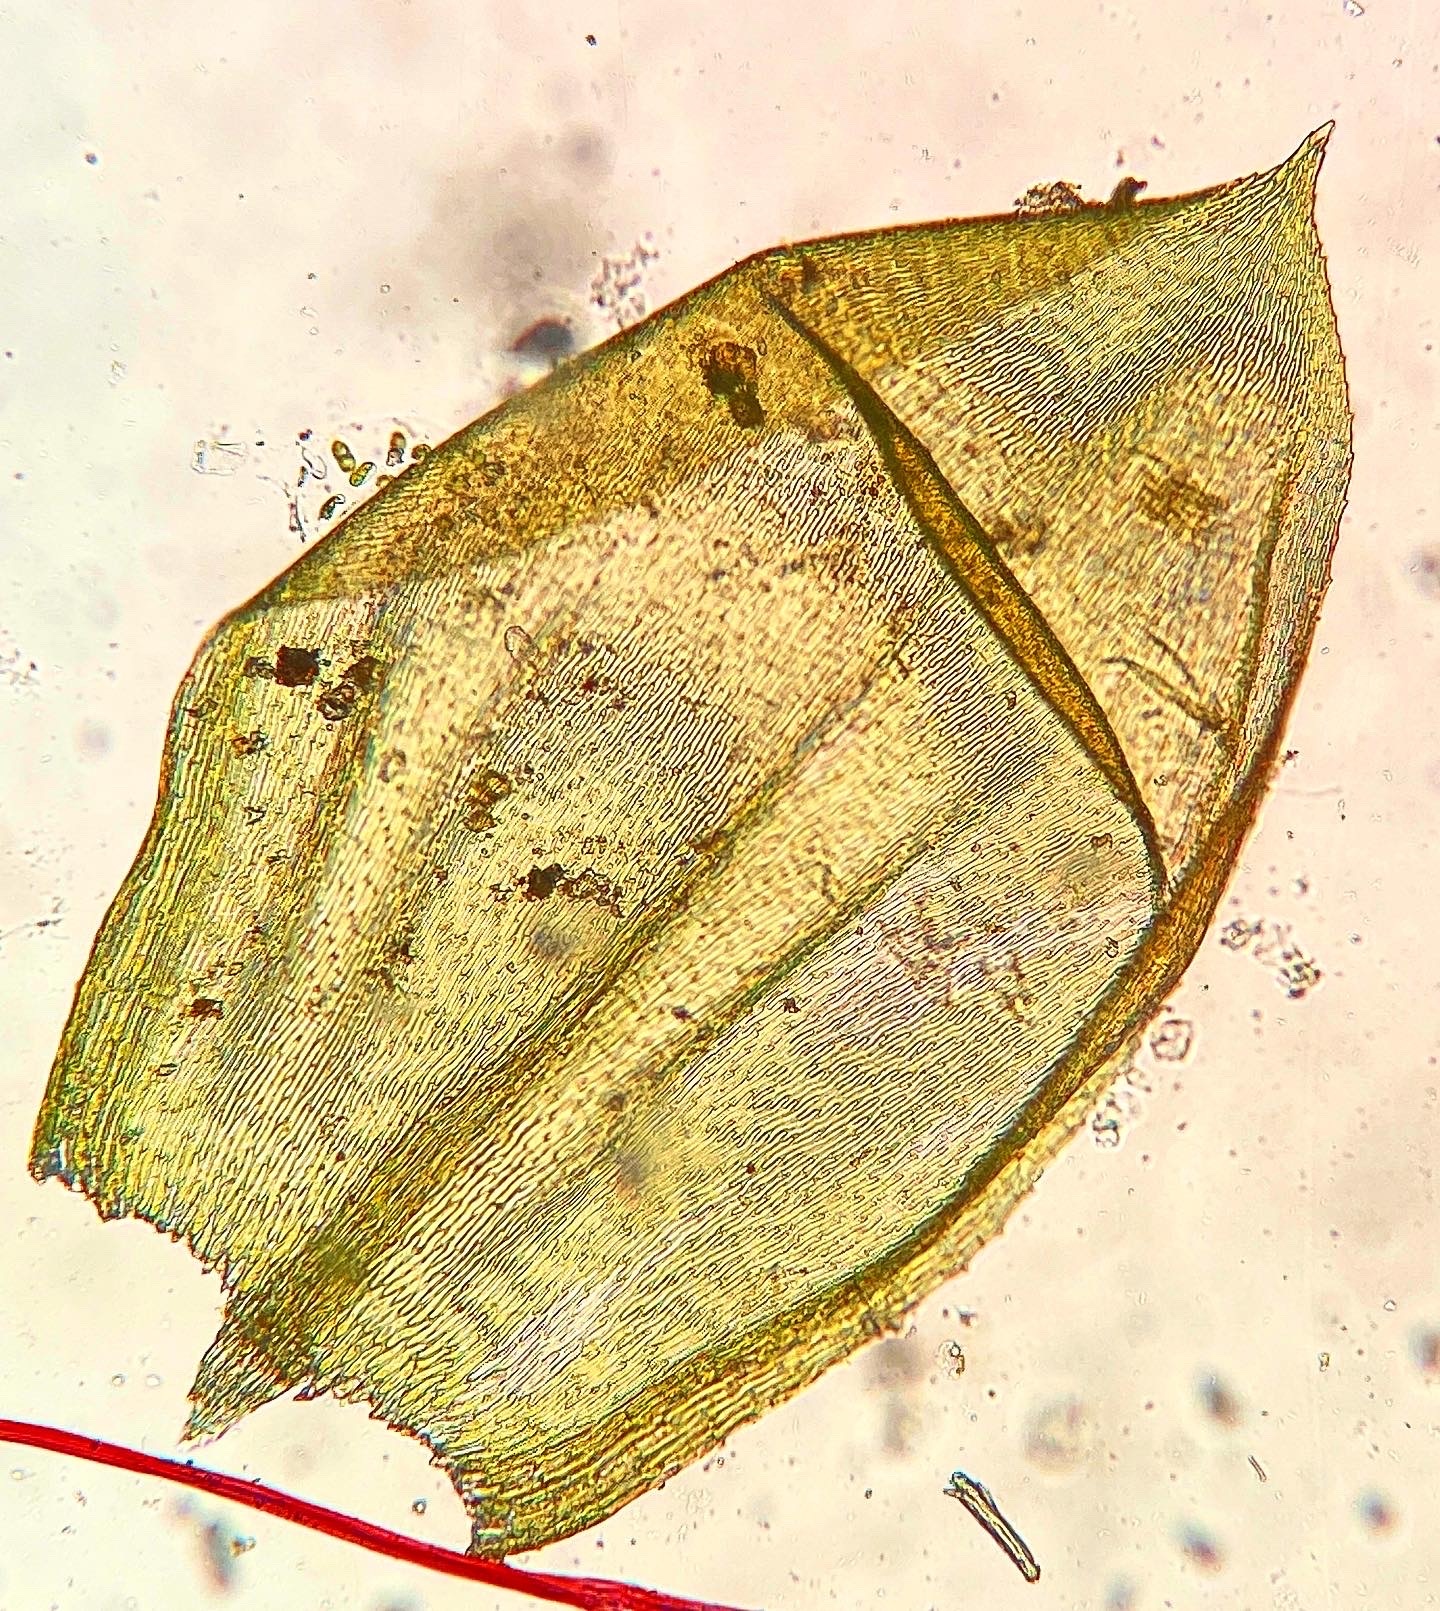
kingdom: Plantae
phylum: Bryophyta
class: Bryopsida
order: Hypnales
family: Brachytheciaceae
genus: Pseudoscleropodium
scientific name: Pseudoscleropodium purum
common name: Neat feather-moss
